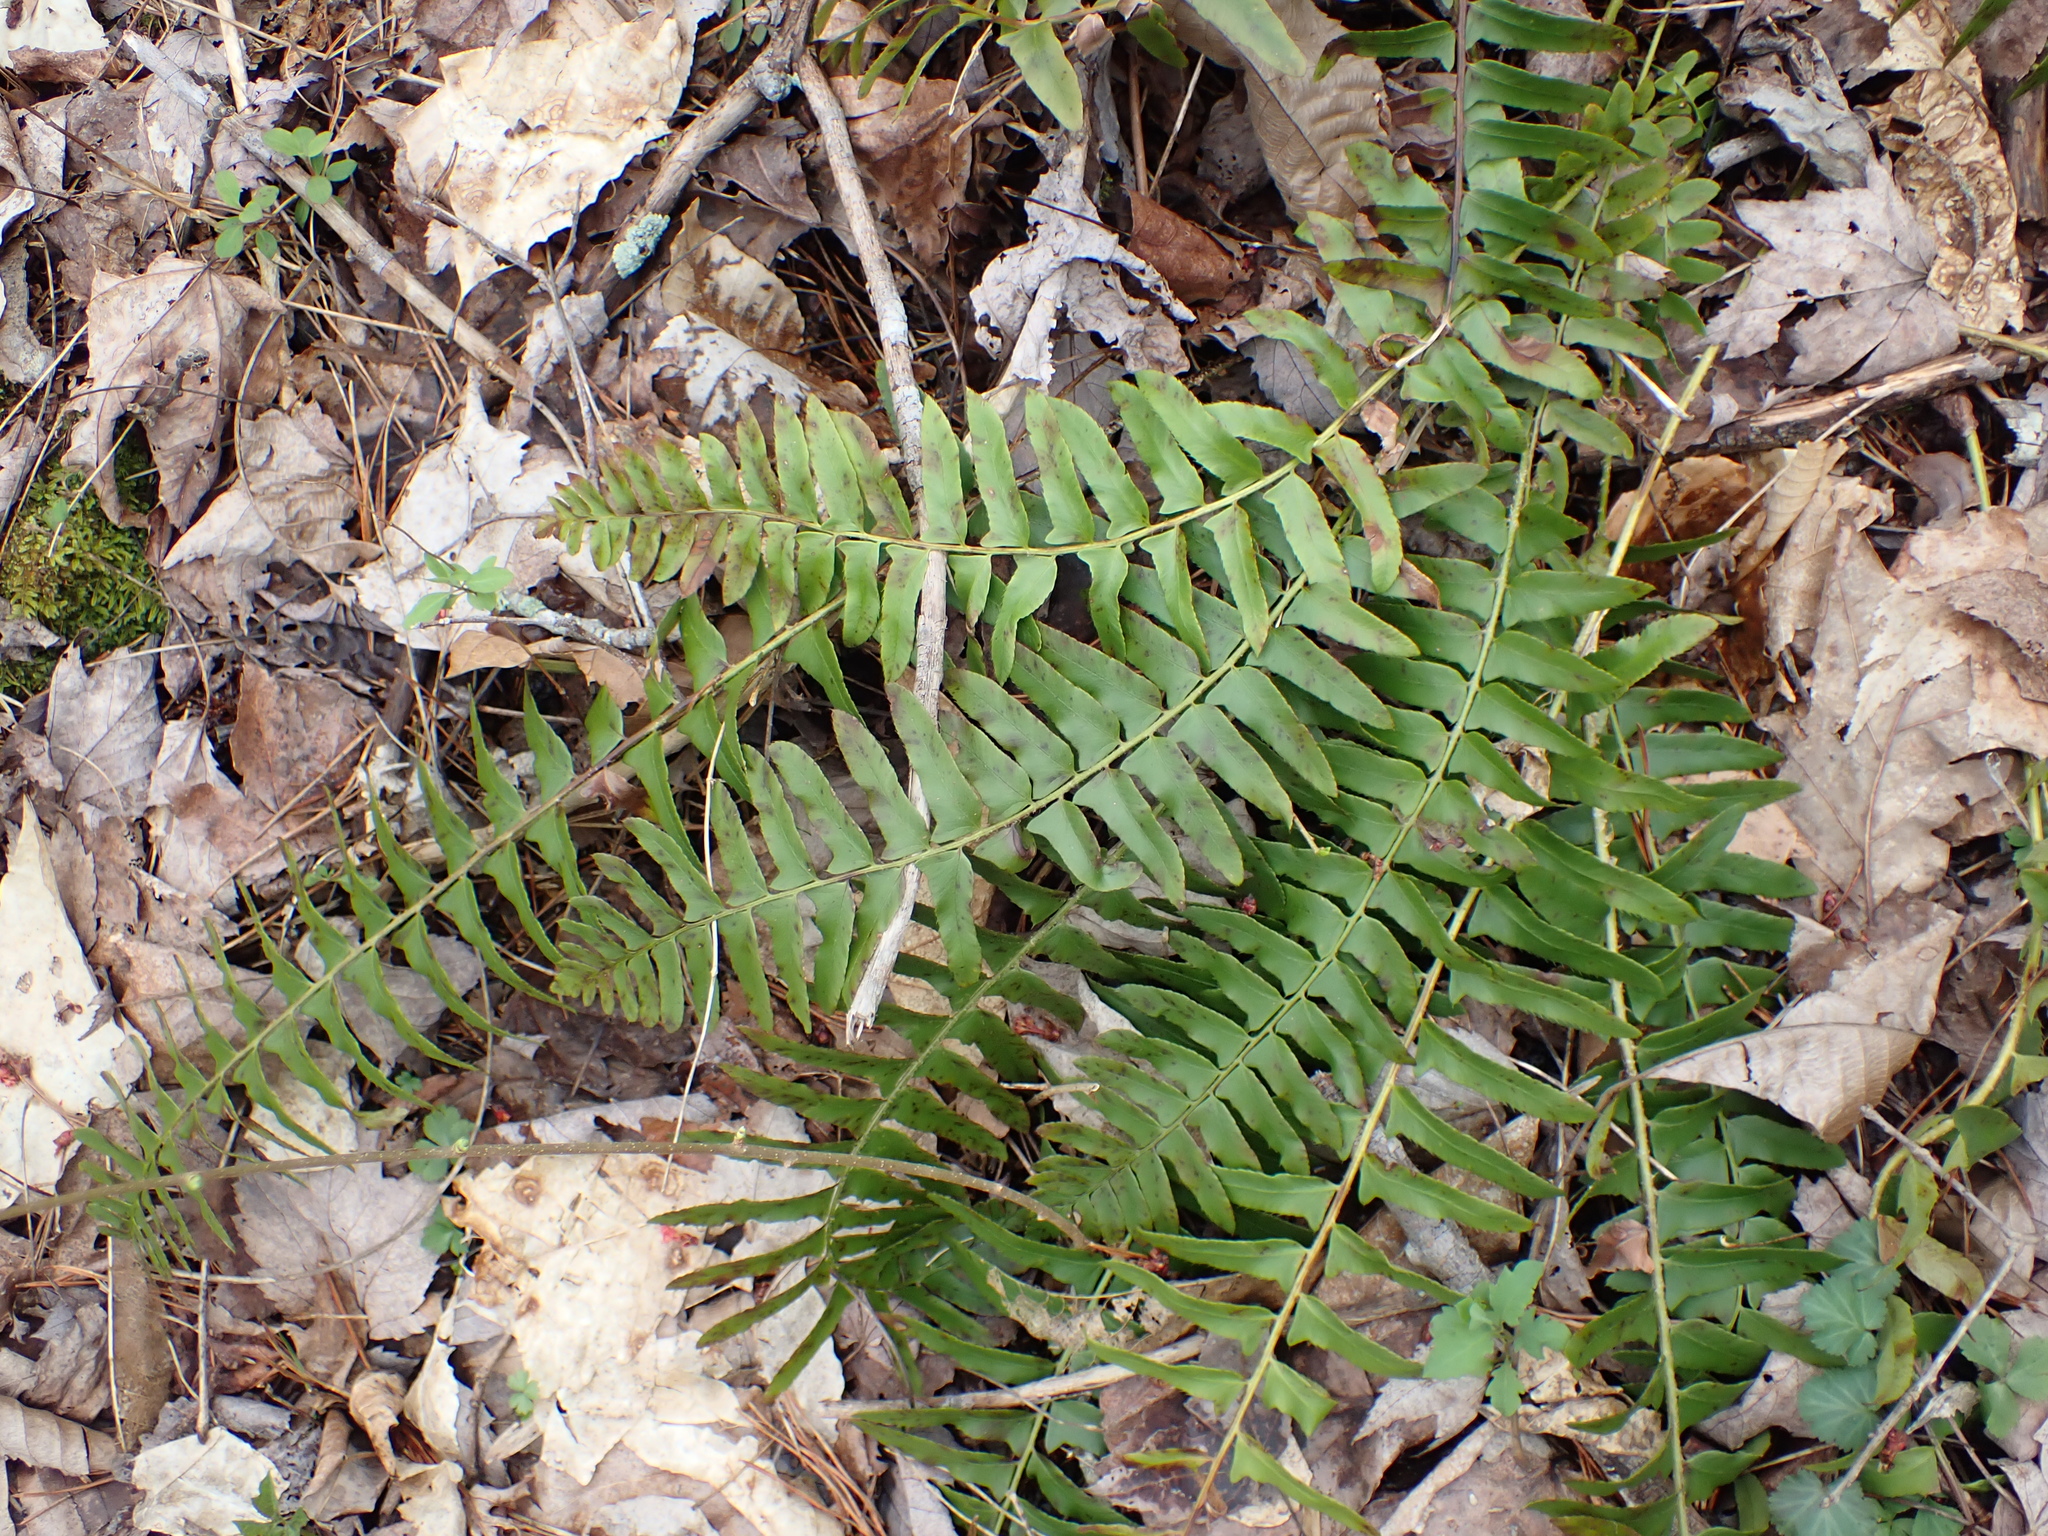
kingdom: Plantae
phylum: Tracheophyta
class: Polypodiopsida
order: Polypodiales
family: Dryopteridaceae
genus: Polystichum
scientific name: Polystichum acrostichoides
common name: Christmas fern
